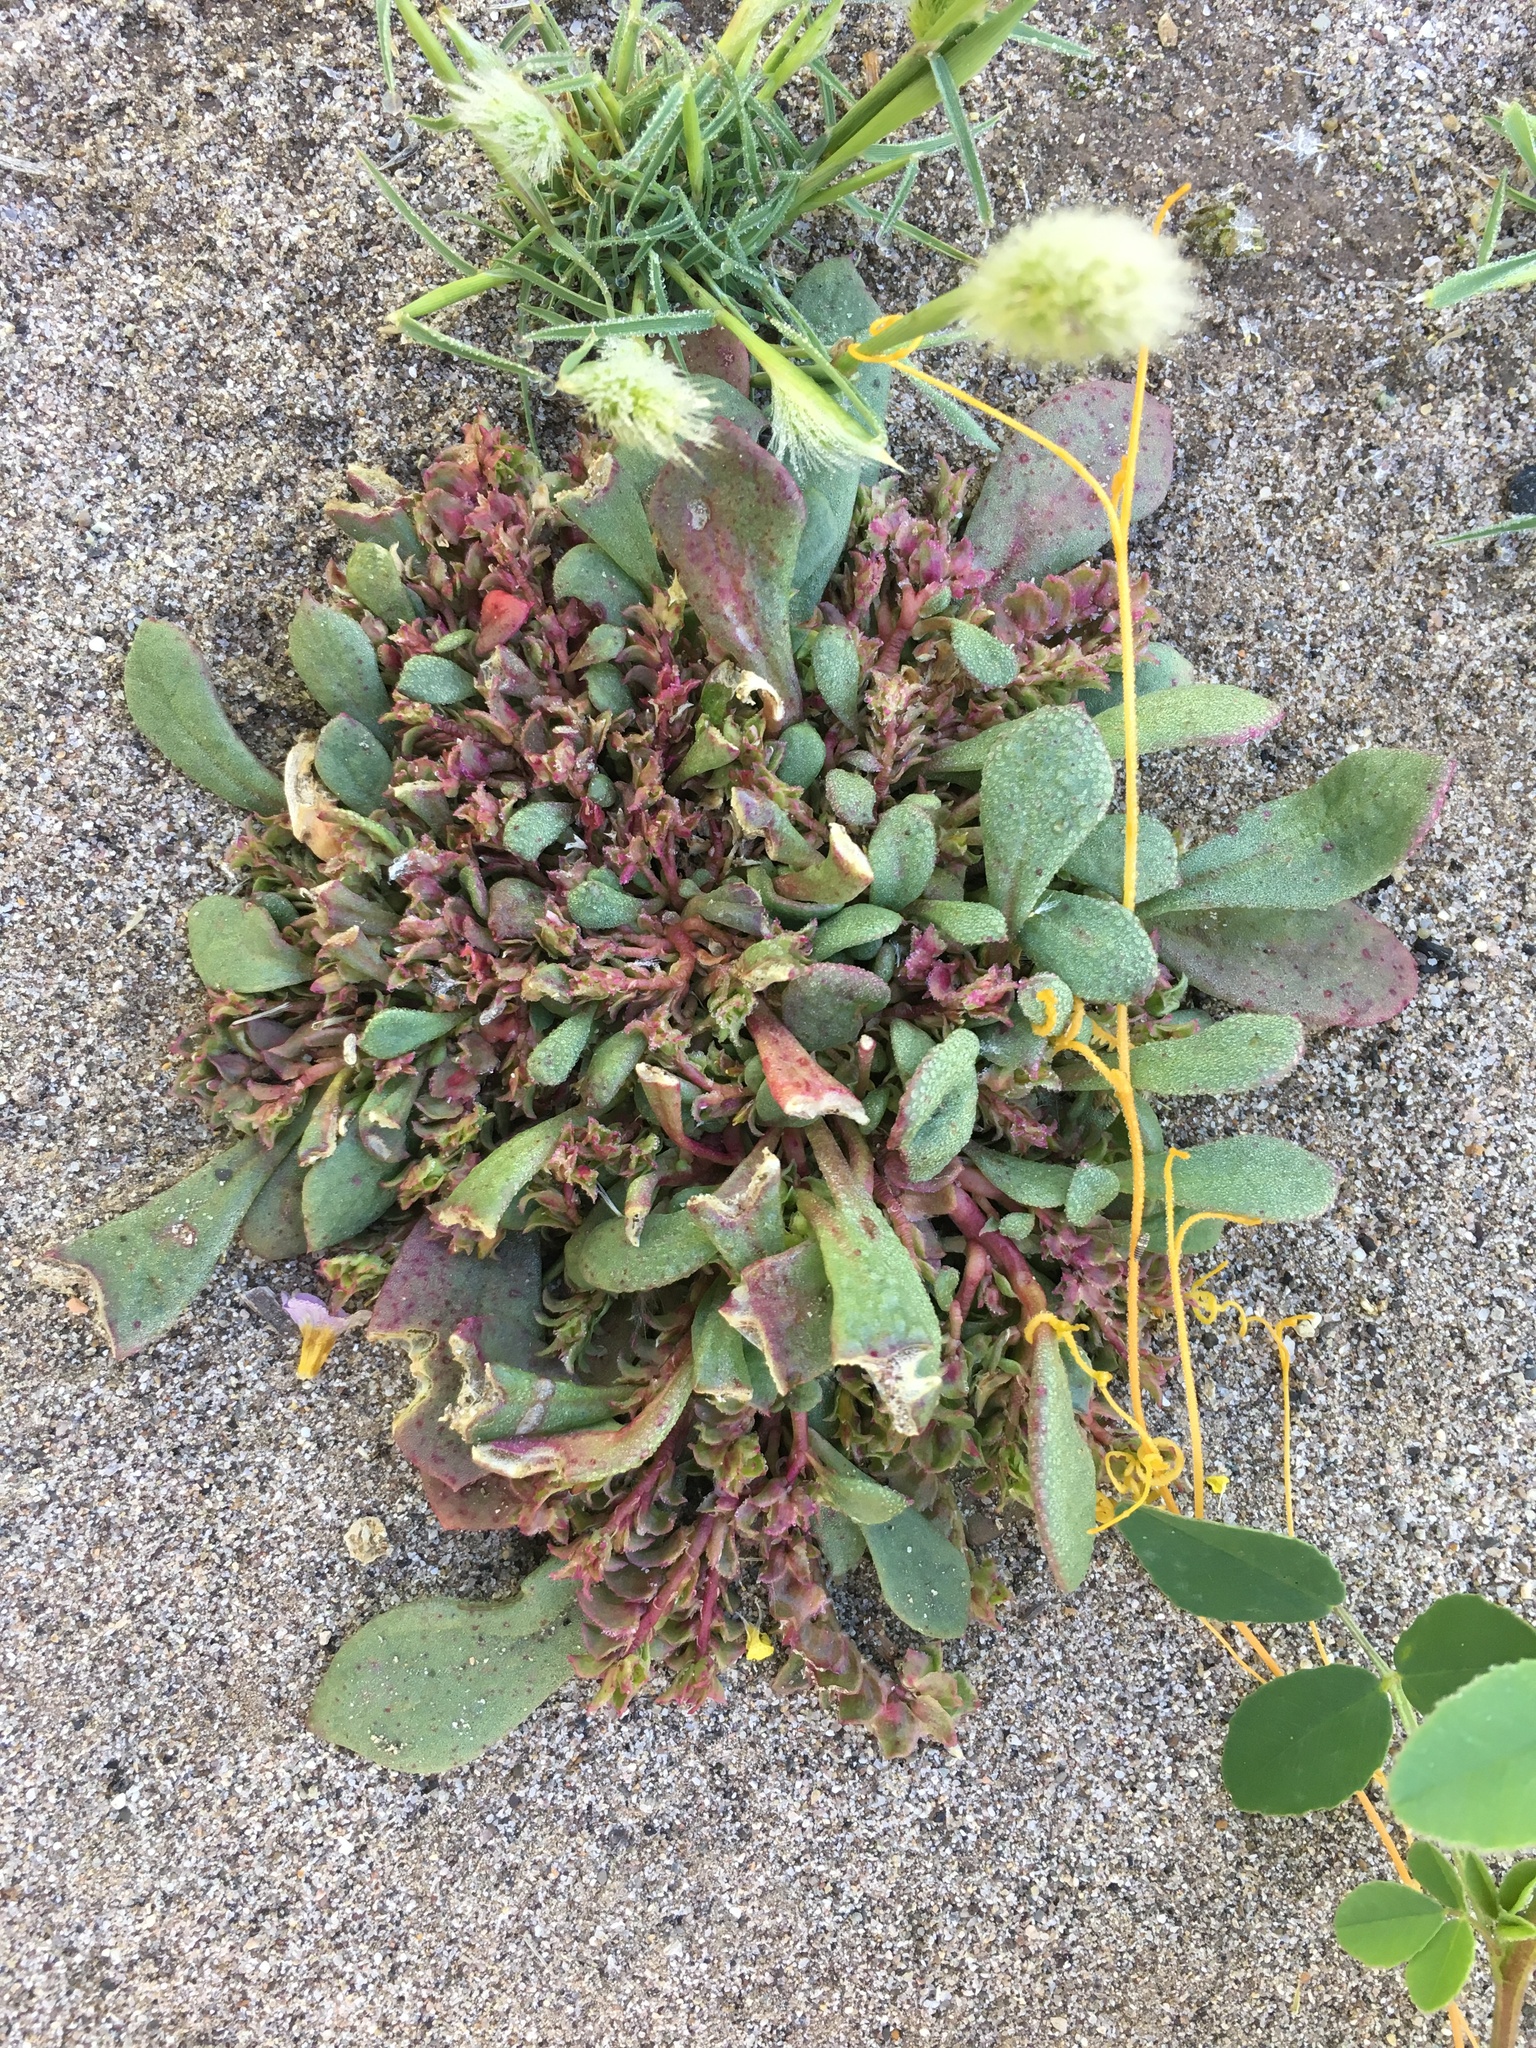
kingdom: Plantae
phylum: Tracheophyta
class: Magnoliopsida
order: Caryophyllales
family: Montiaceae
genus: Calyptridium
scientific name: Calyptridium monandrum
